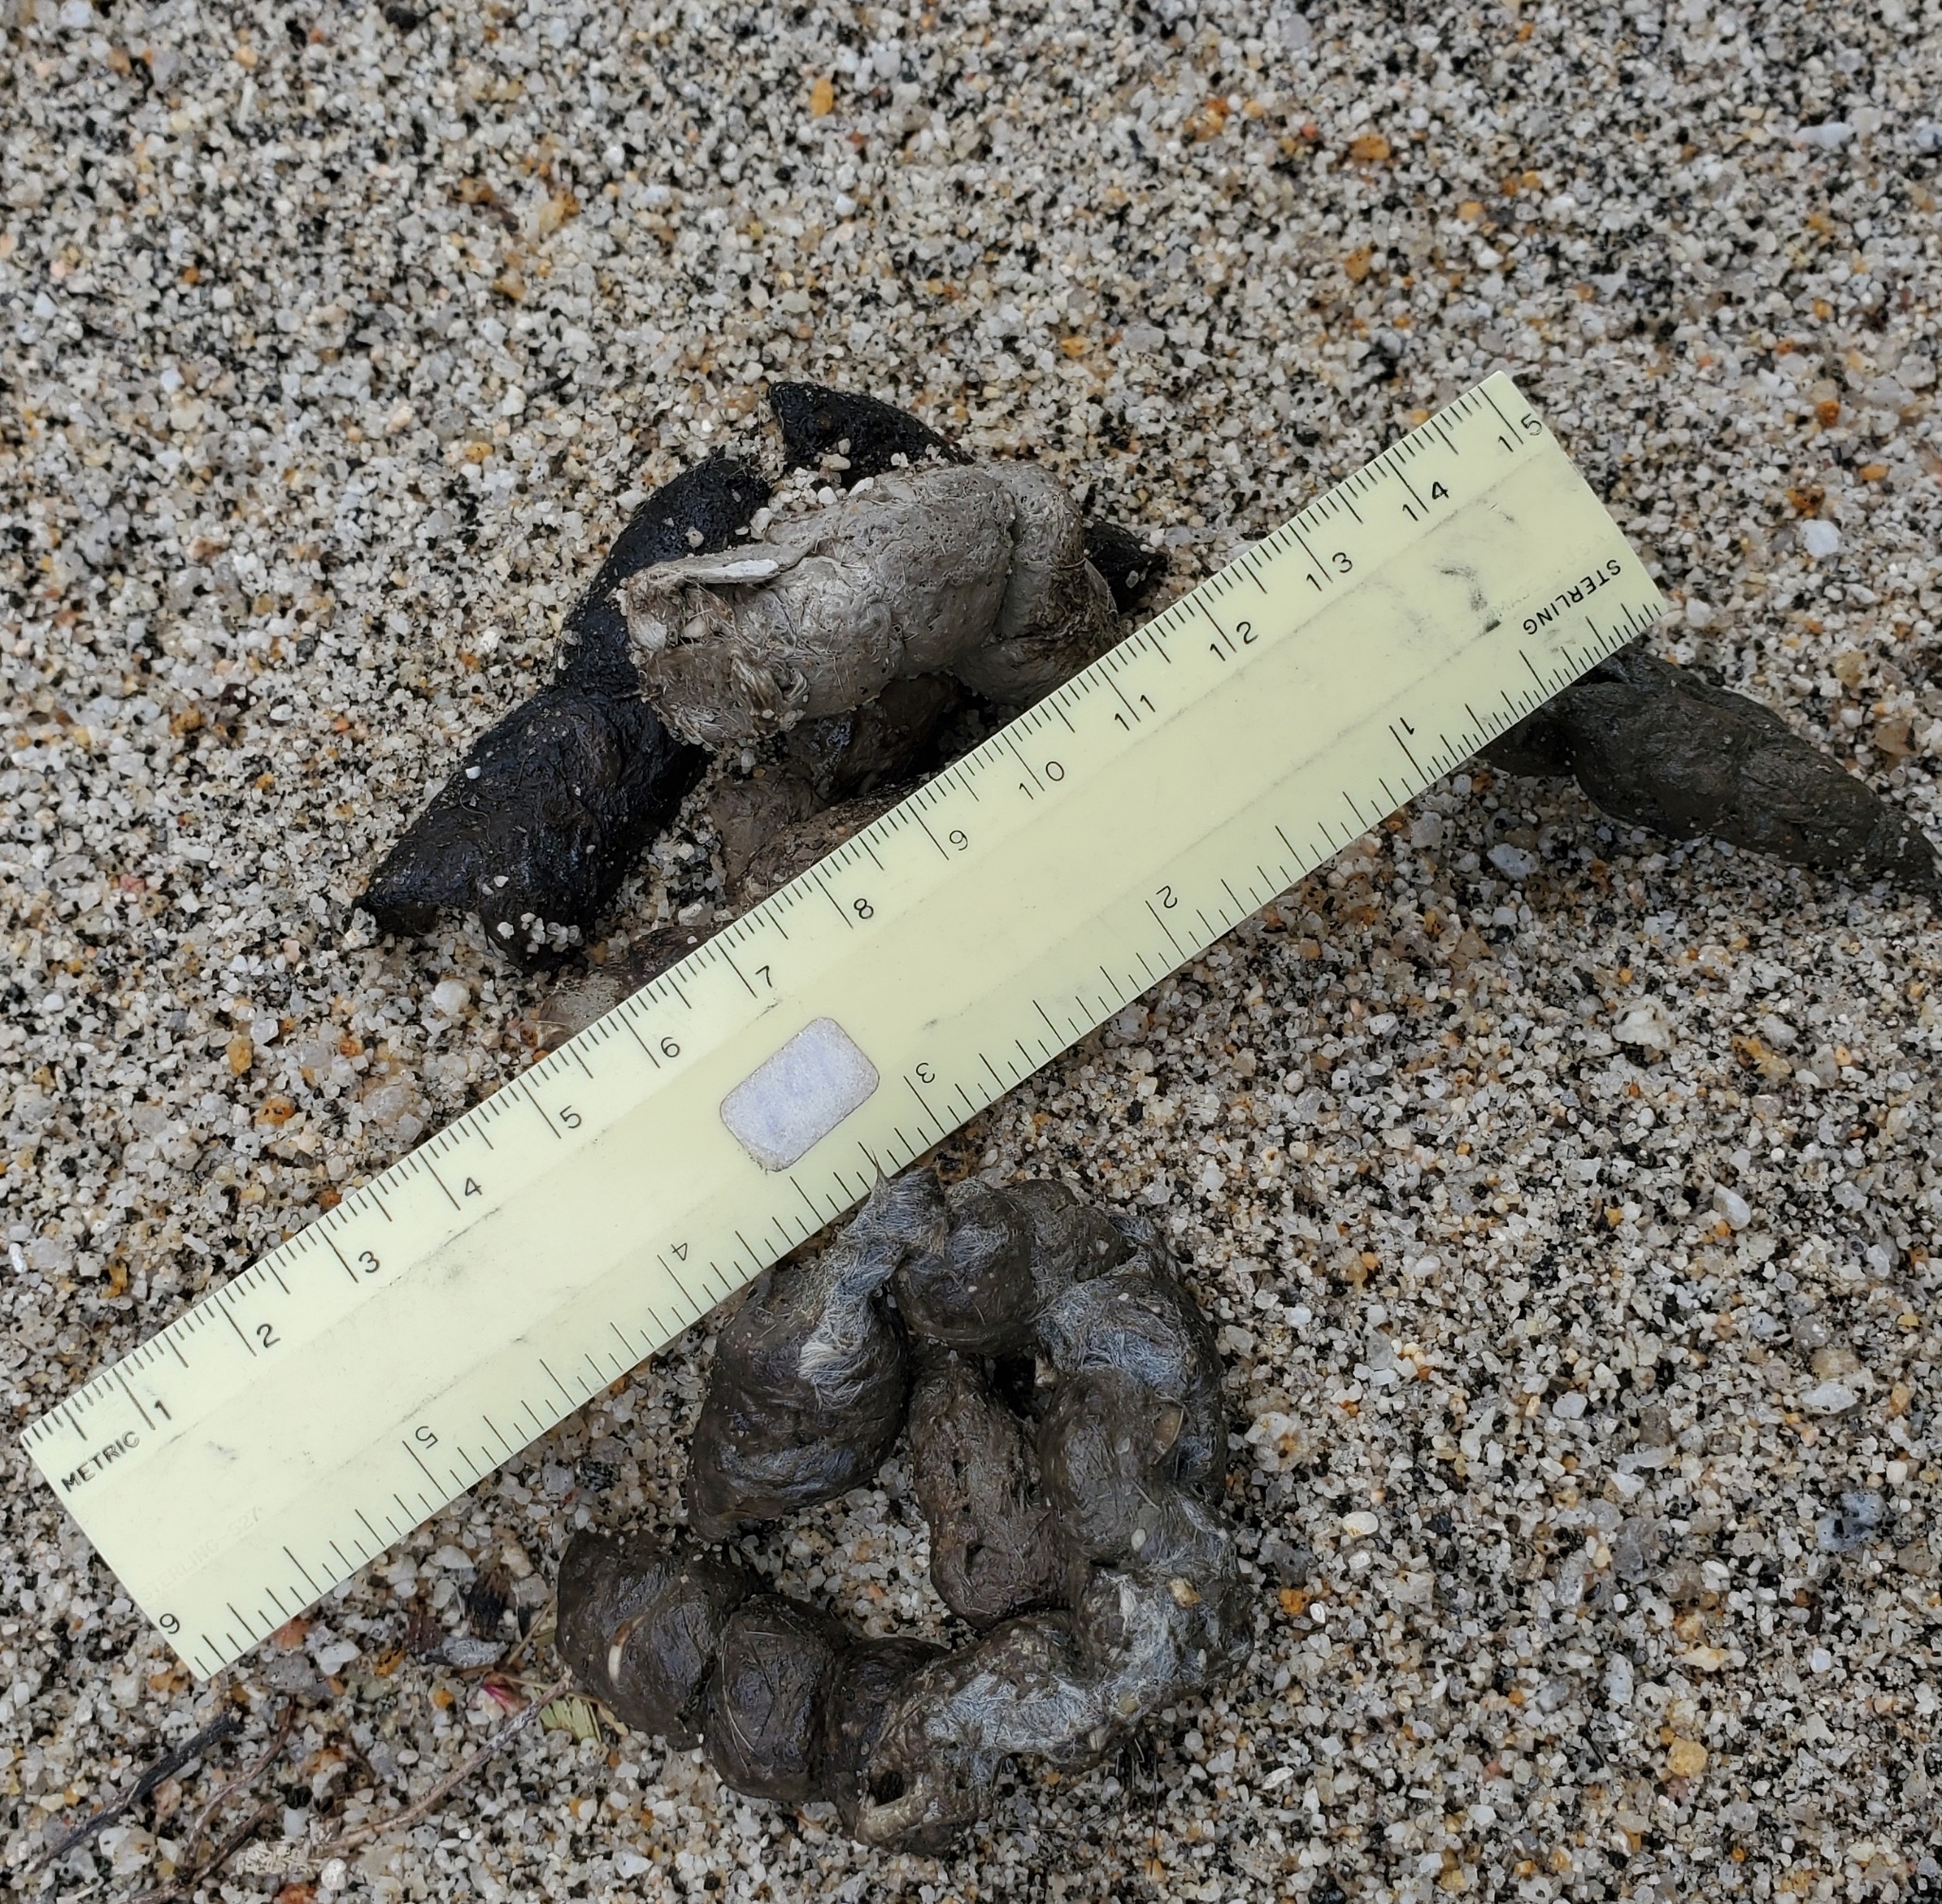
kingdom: Animalia
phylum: Chordata
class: Mammalia
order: Carnivora
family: Canidae
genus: Vulpes
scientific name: Vulpes macrotis
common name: Kit fox
